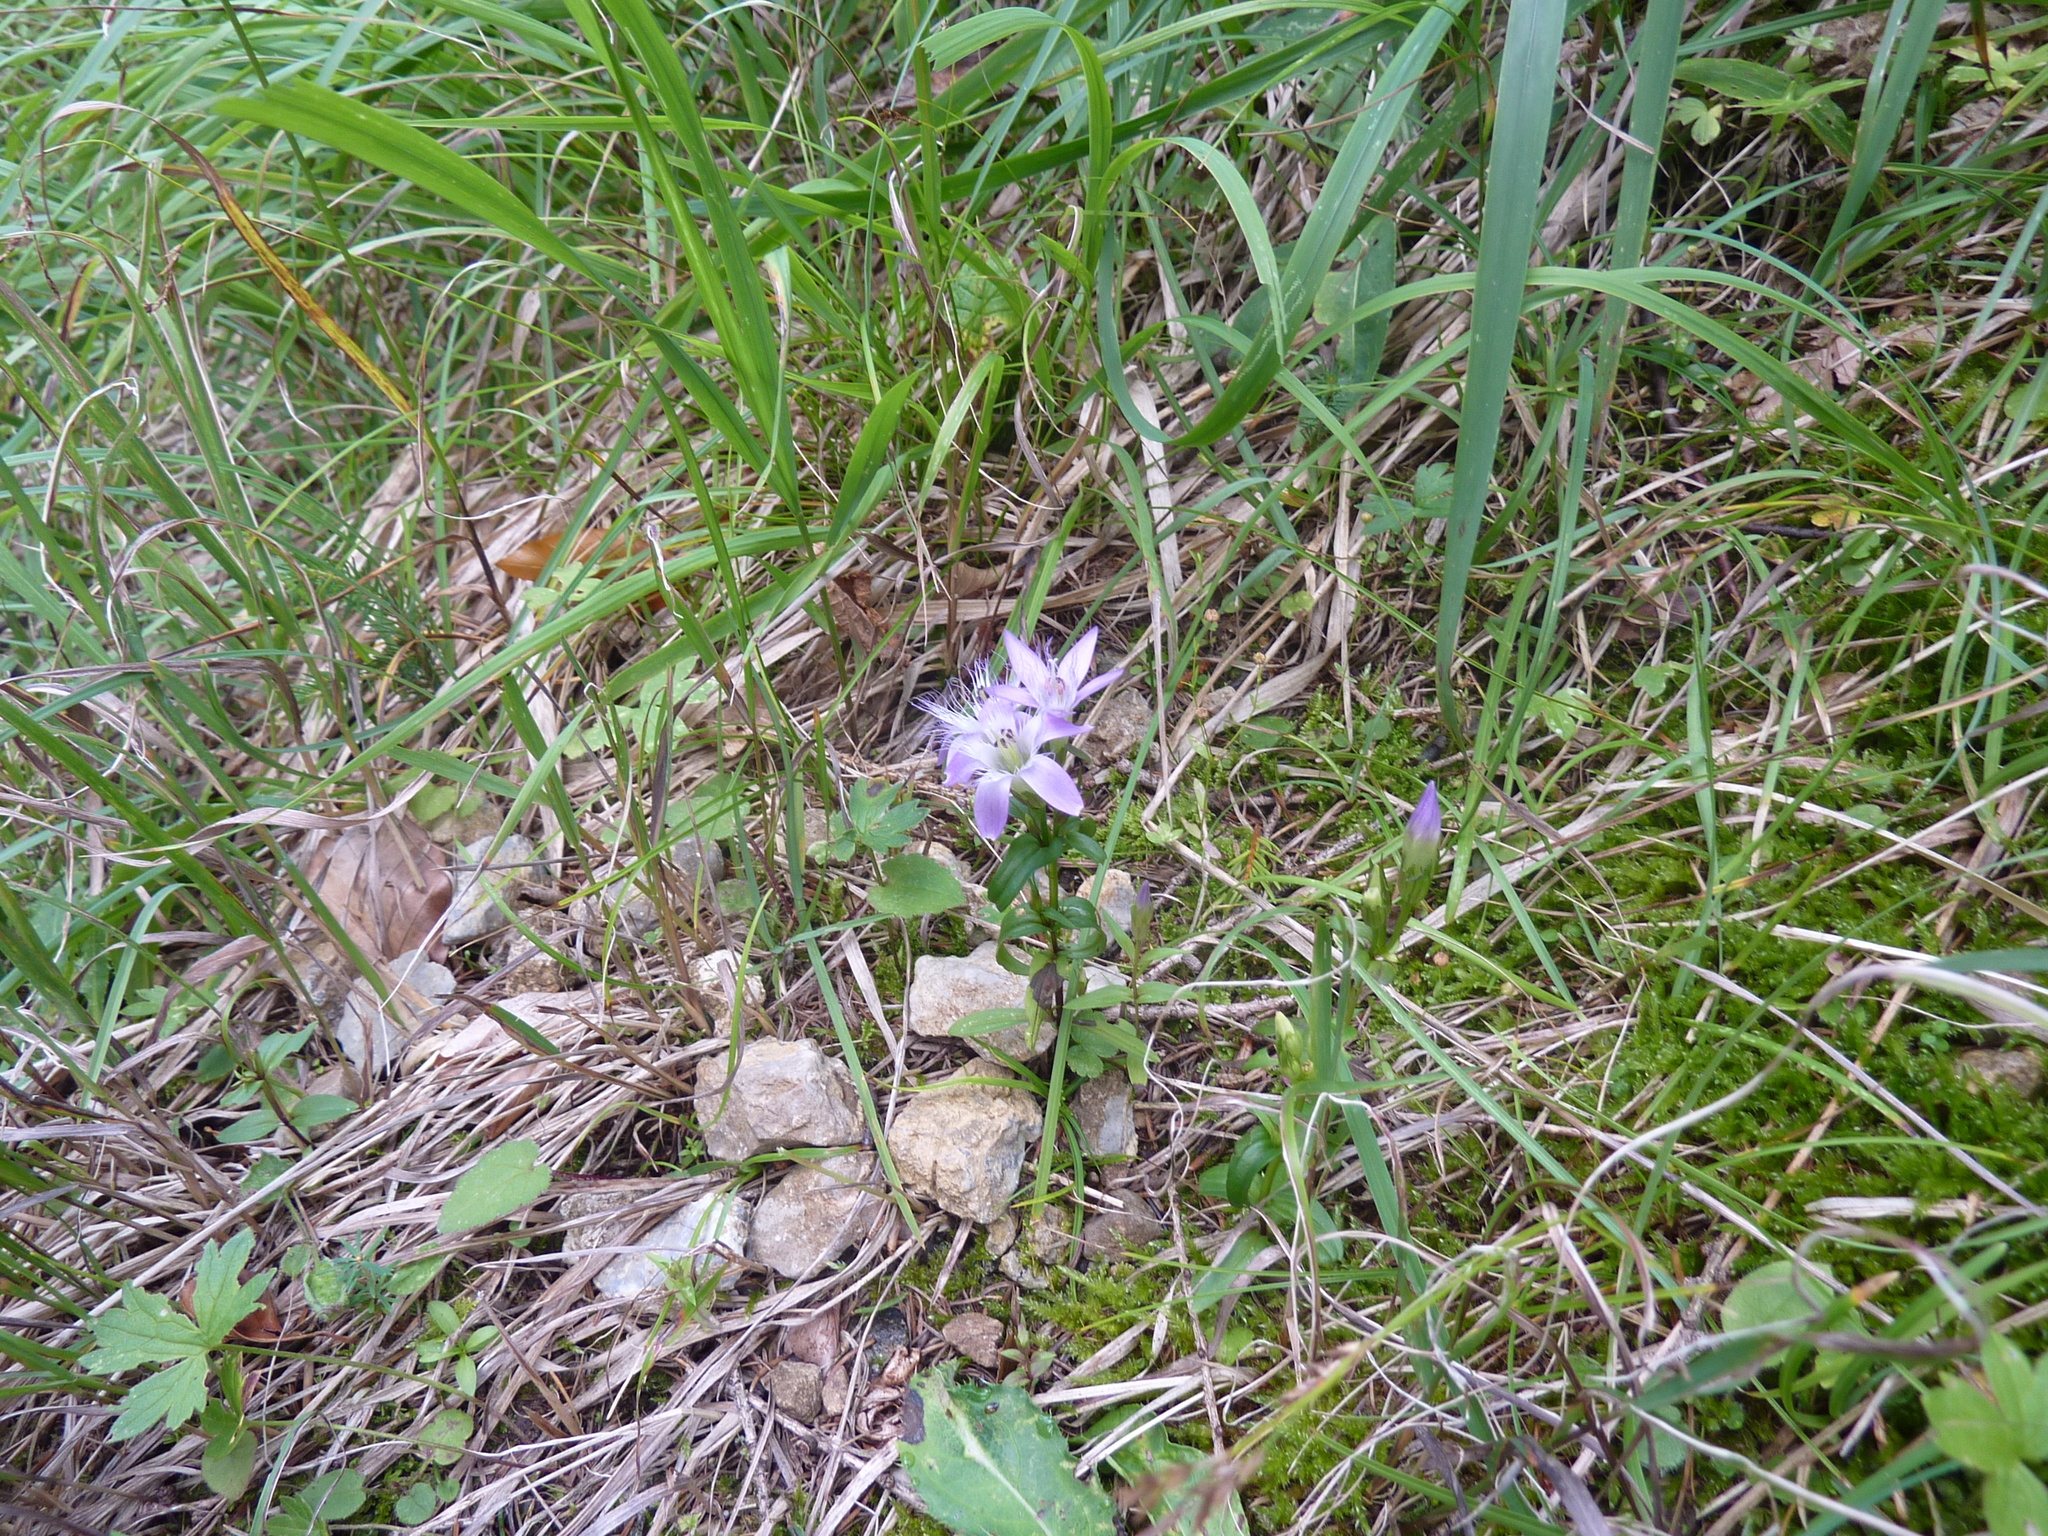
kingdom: Plantae
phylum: Tracheophyta
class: Magnoliopsida
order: Gentianales
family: Gentianaceae
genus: Gentianella
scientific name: Gentianella austriaca
